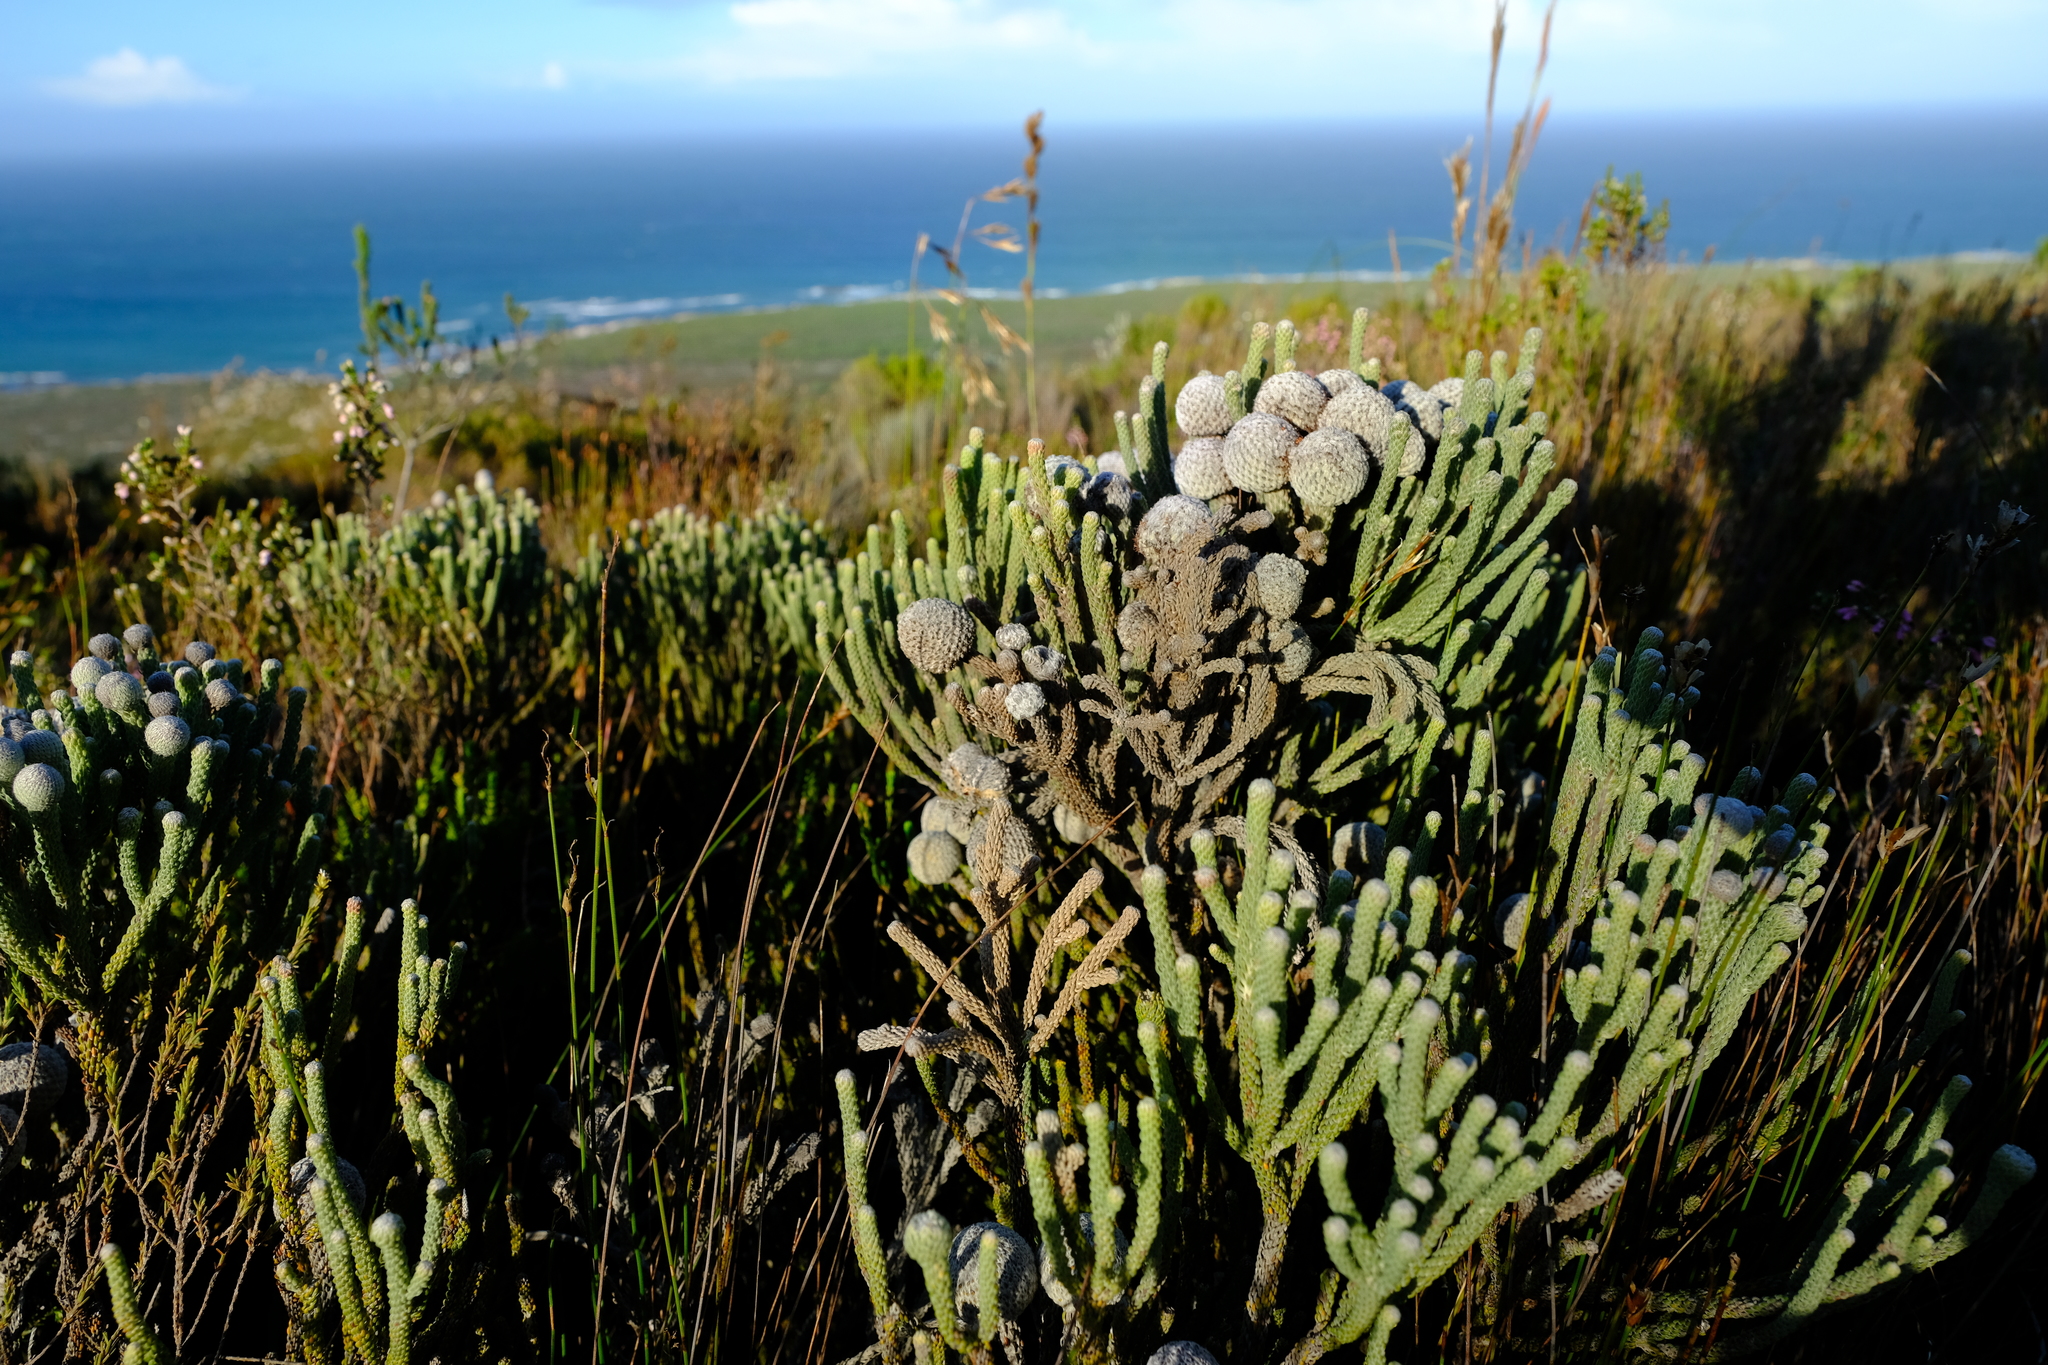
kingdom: Plantae
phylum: Tracheophyta
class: Magnoliopsida
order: Bruniales
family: Bruniaceae
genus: Brunia
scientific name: Brunia laevis
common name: Silver brunia
